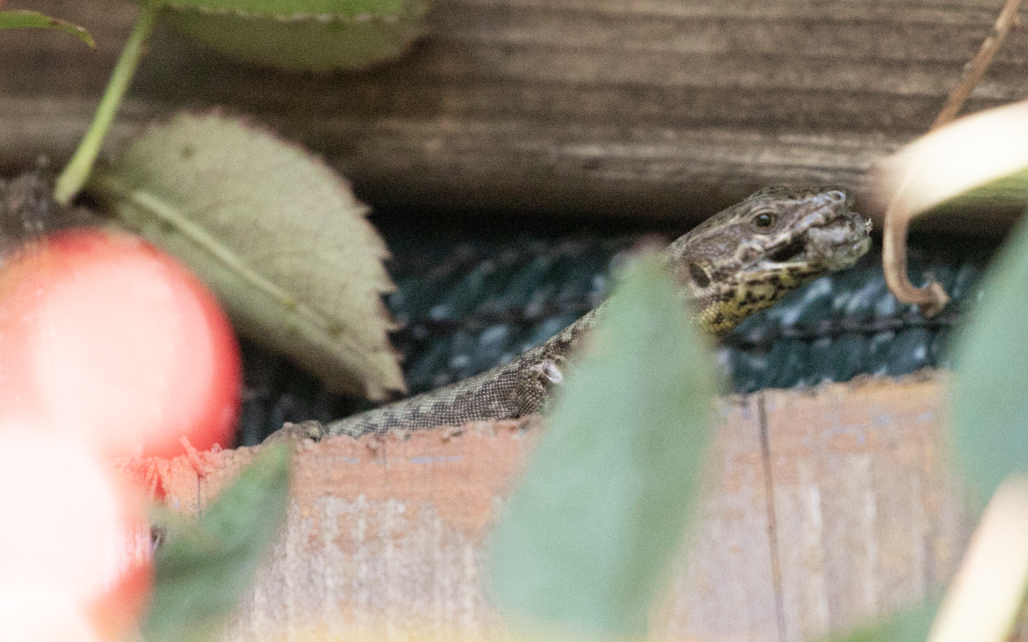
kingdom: Animalia
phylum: Chordata
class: Squamata
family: Lacertidae
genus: Podarcis
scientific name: Podarcis muralis
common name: Common wall lizard
